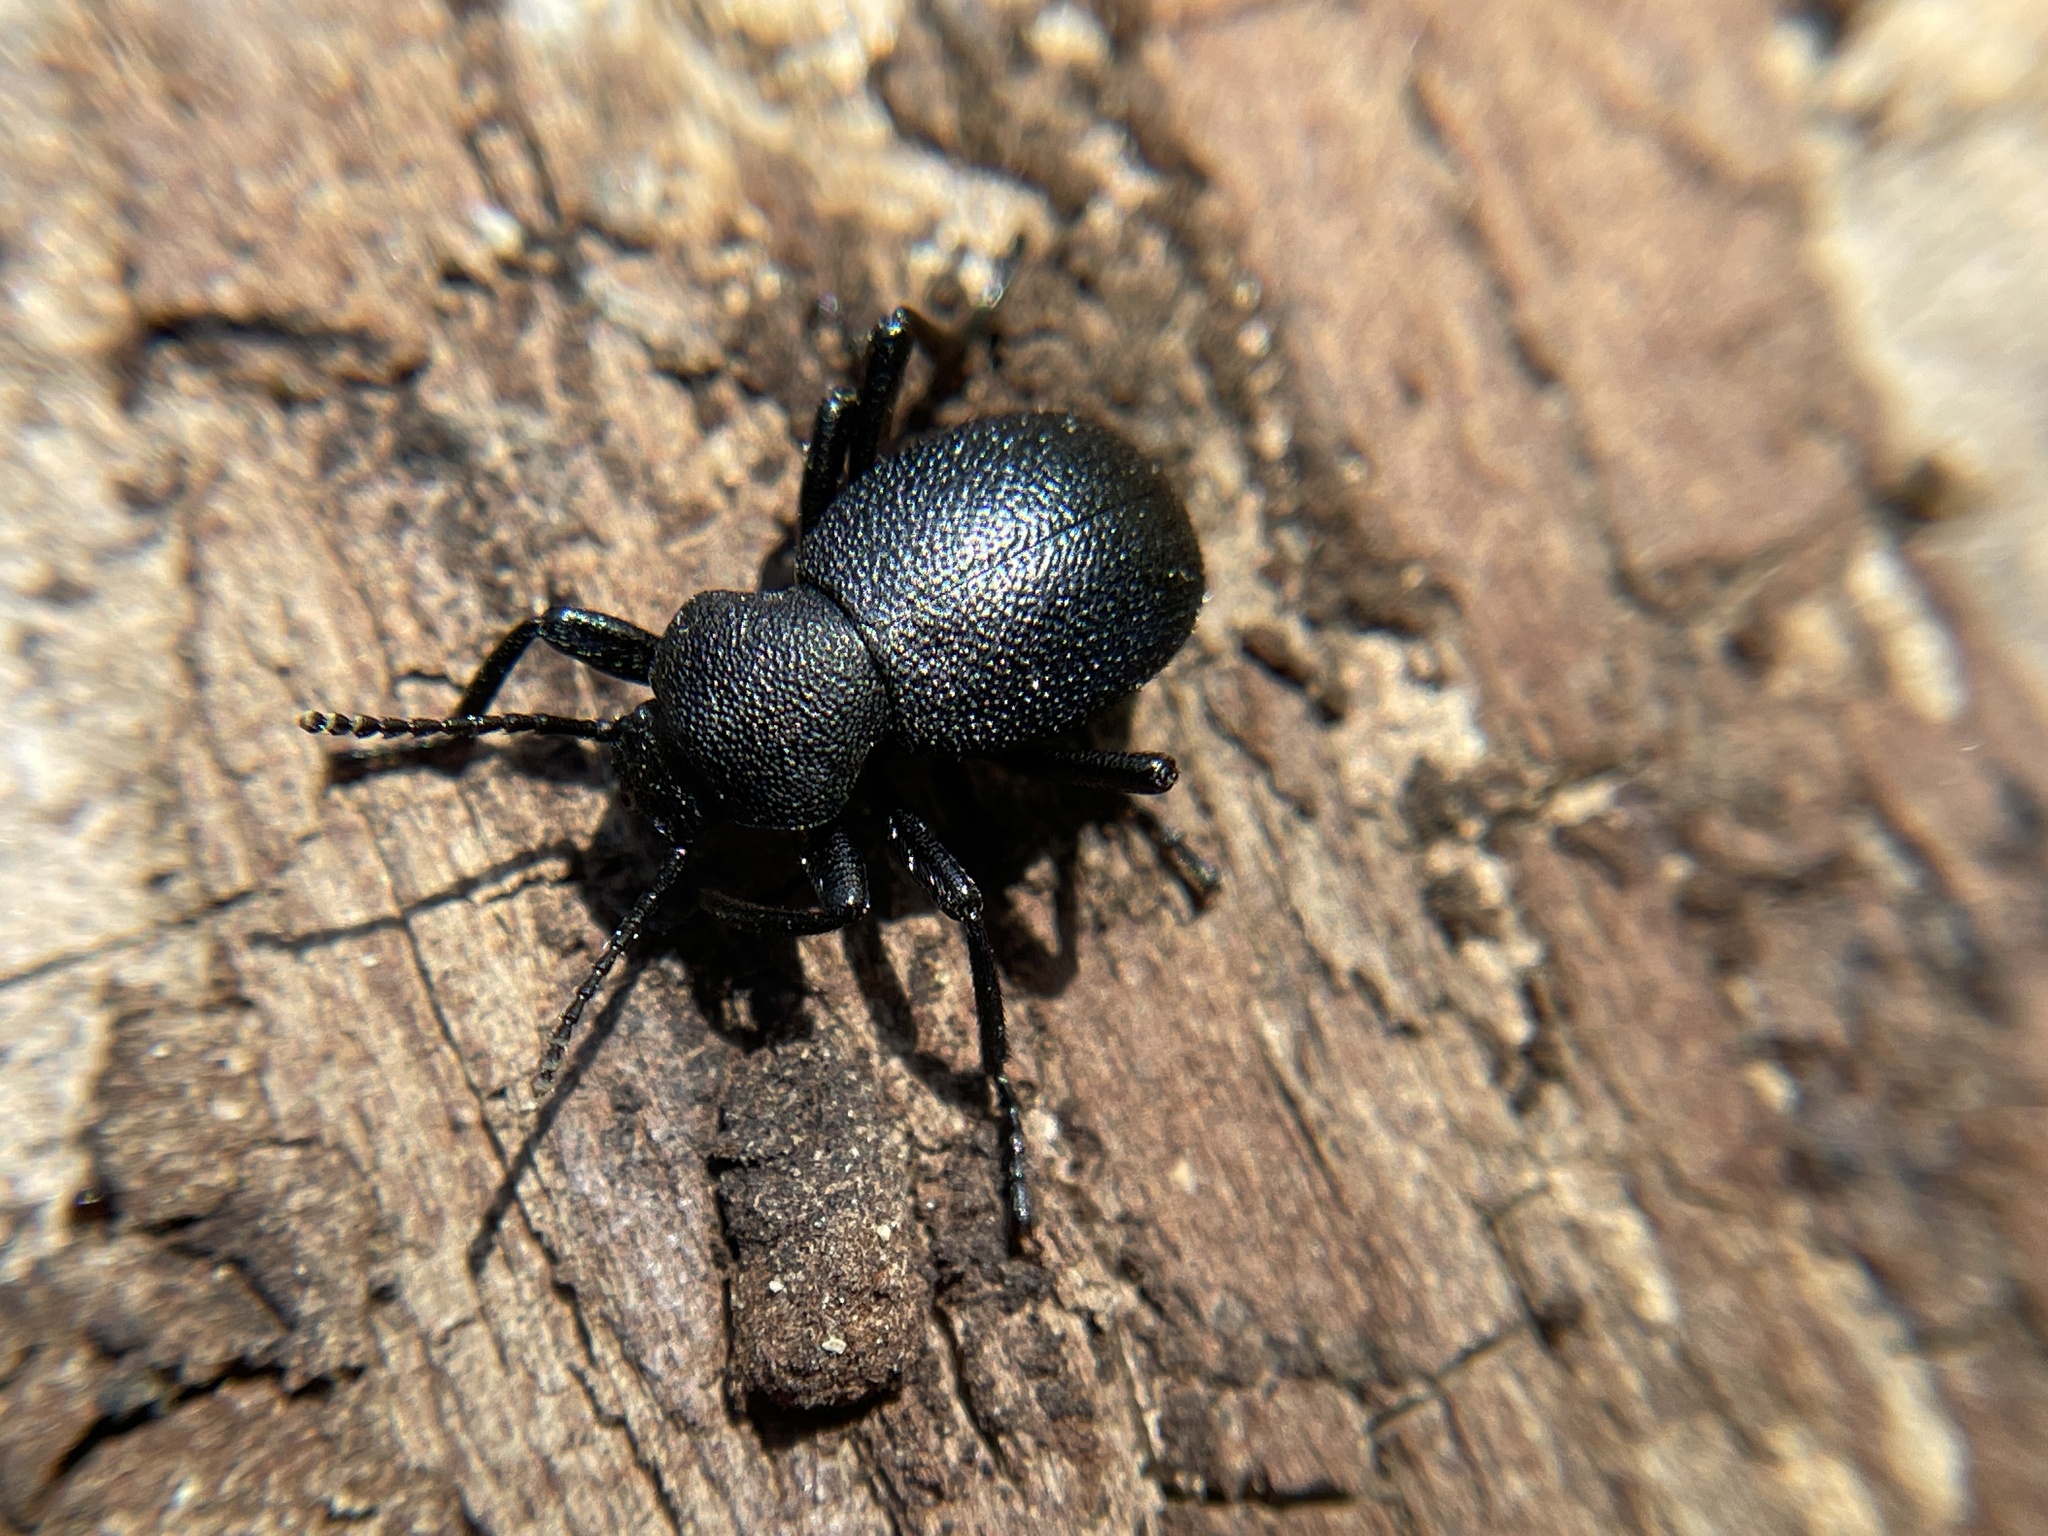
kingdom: Animalia
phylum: Arthropoda
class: Insecta
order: Coleoptera
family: Tenebrionidae
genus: Eleodes
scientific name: Eleodes cordata
